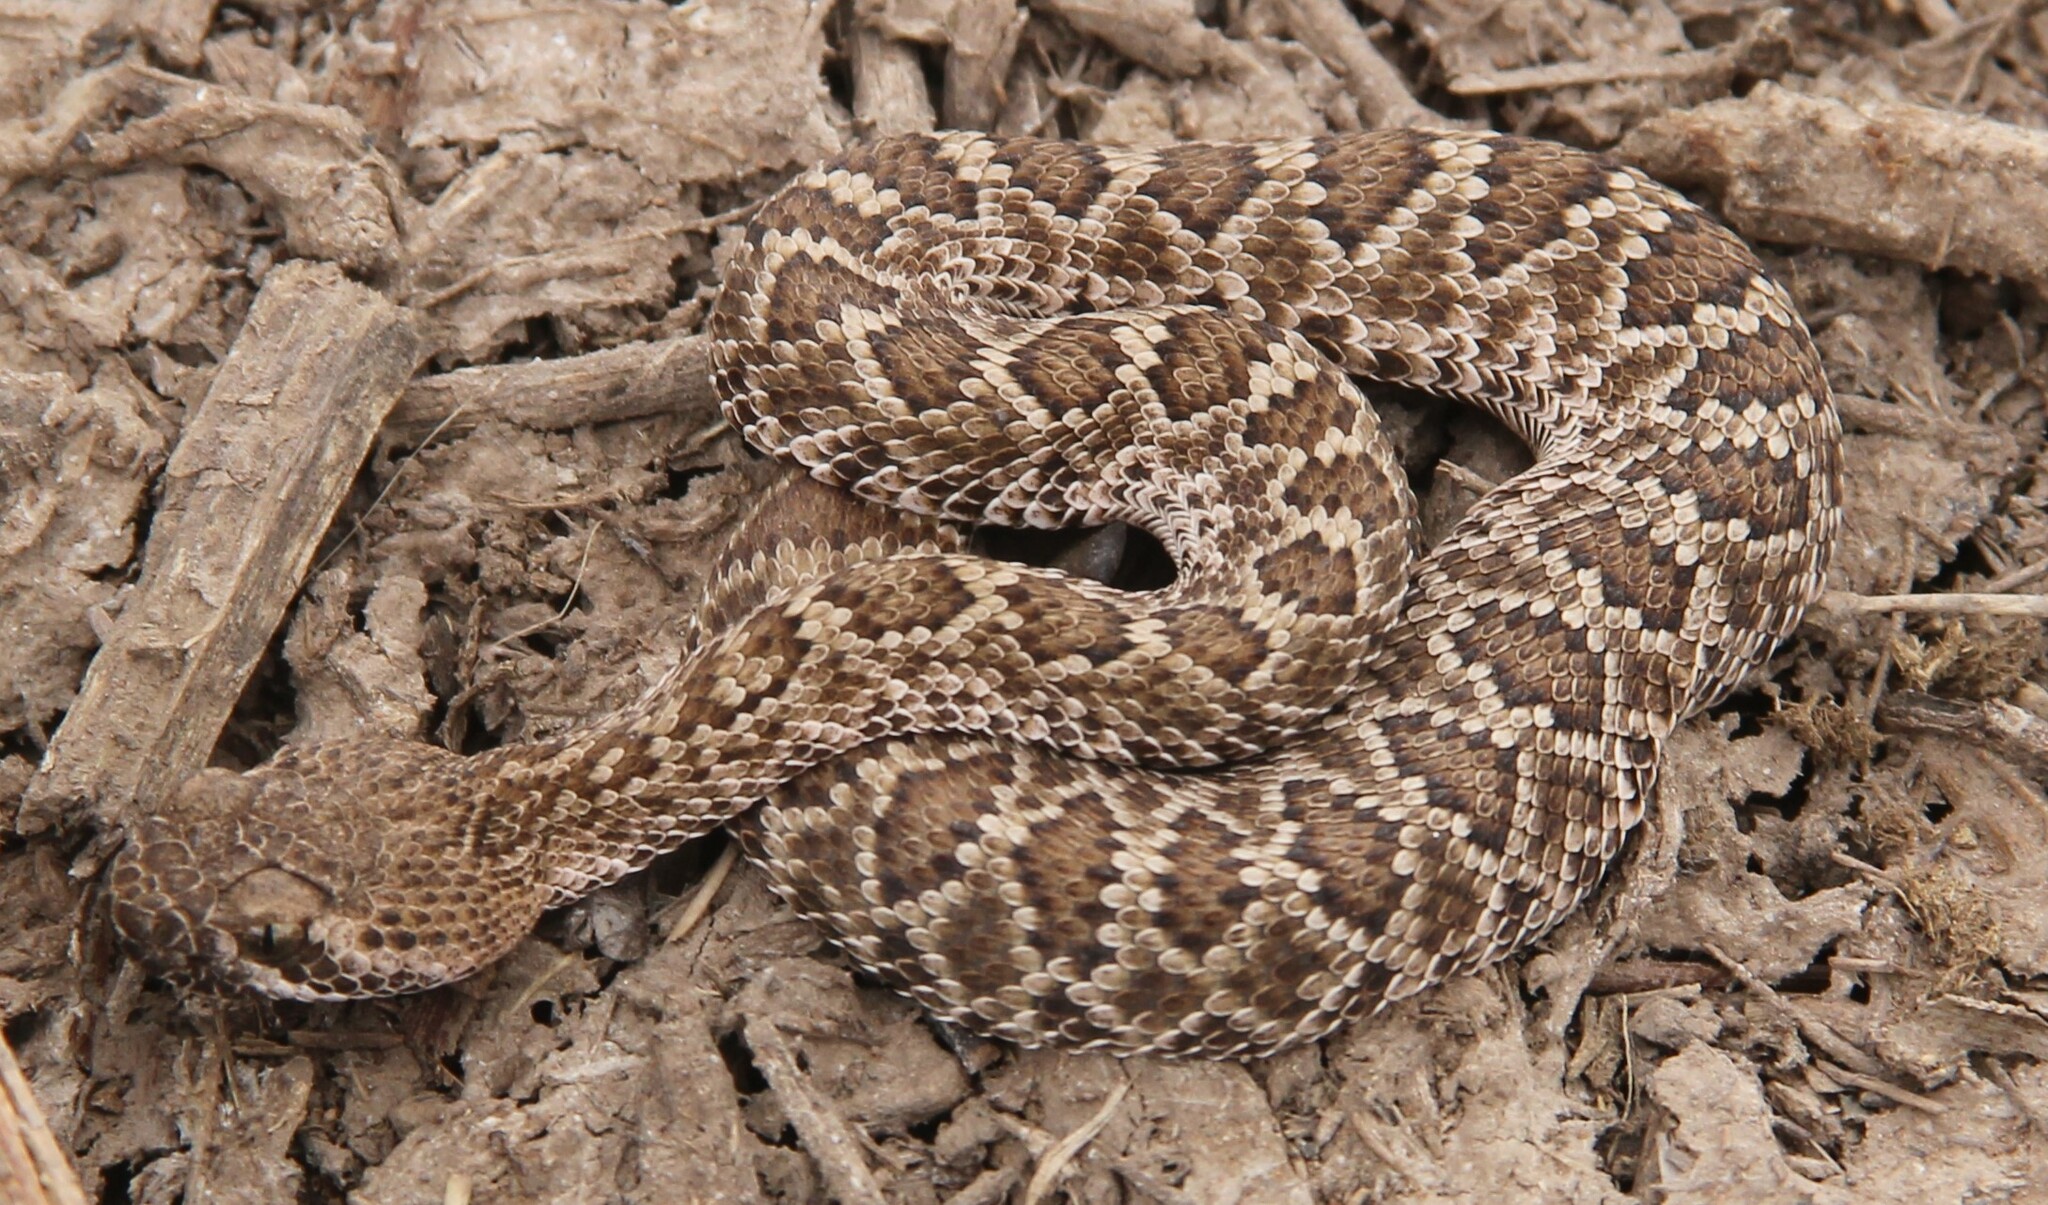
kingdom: Animalia
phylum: Chordata
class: Squamata
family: Viperidae
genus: Crotalus
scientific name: Crotalus scutulatus
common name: Scutulatus
